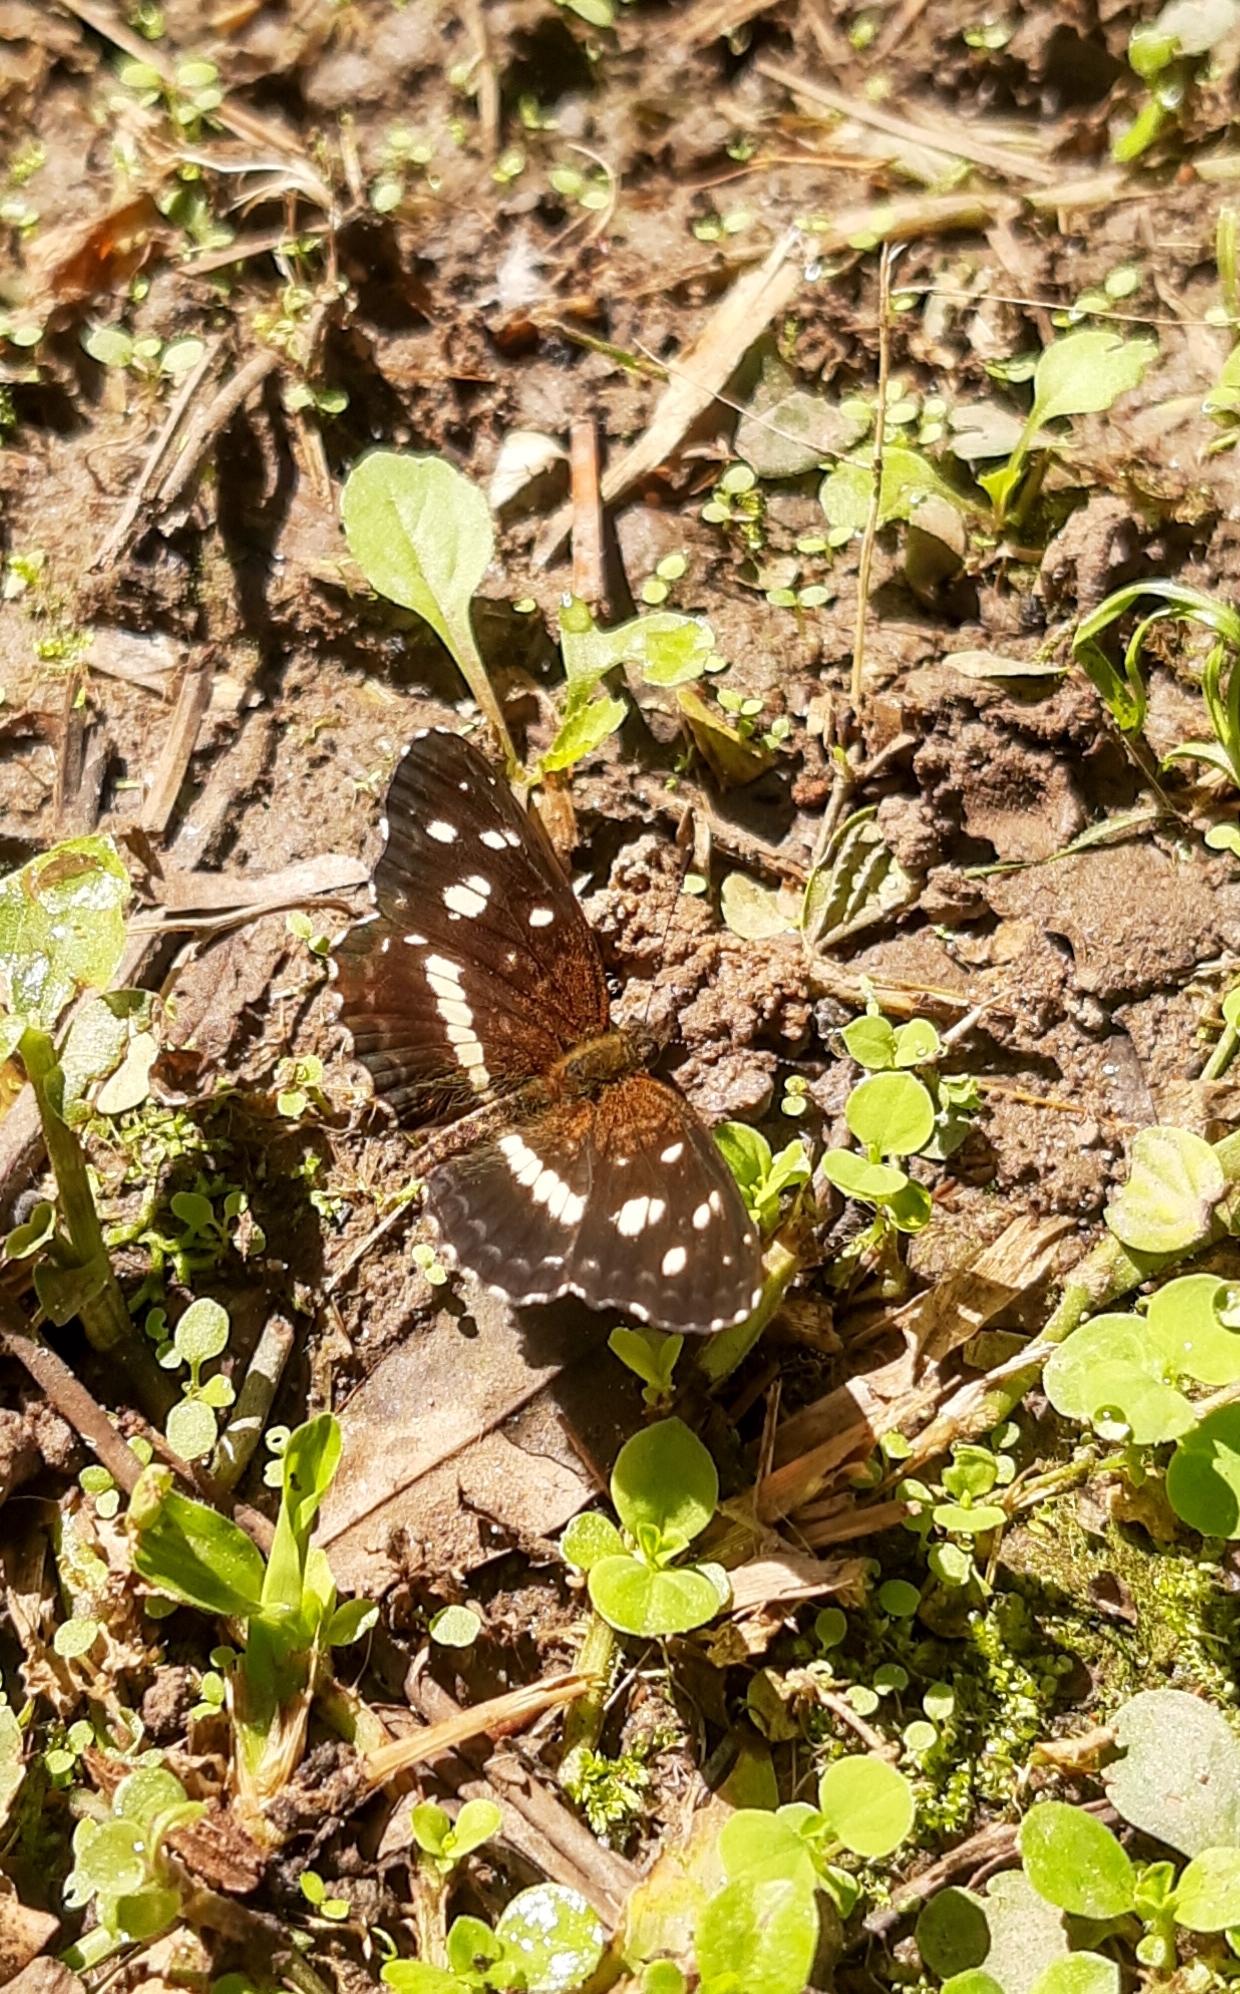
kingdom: Animalia
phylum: Arthropoda
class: Insecta
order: Lepidoptera
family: Nymphalidae
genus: Ortilia
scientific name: Ortilia ithra
